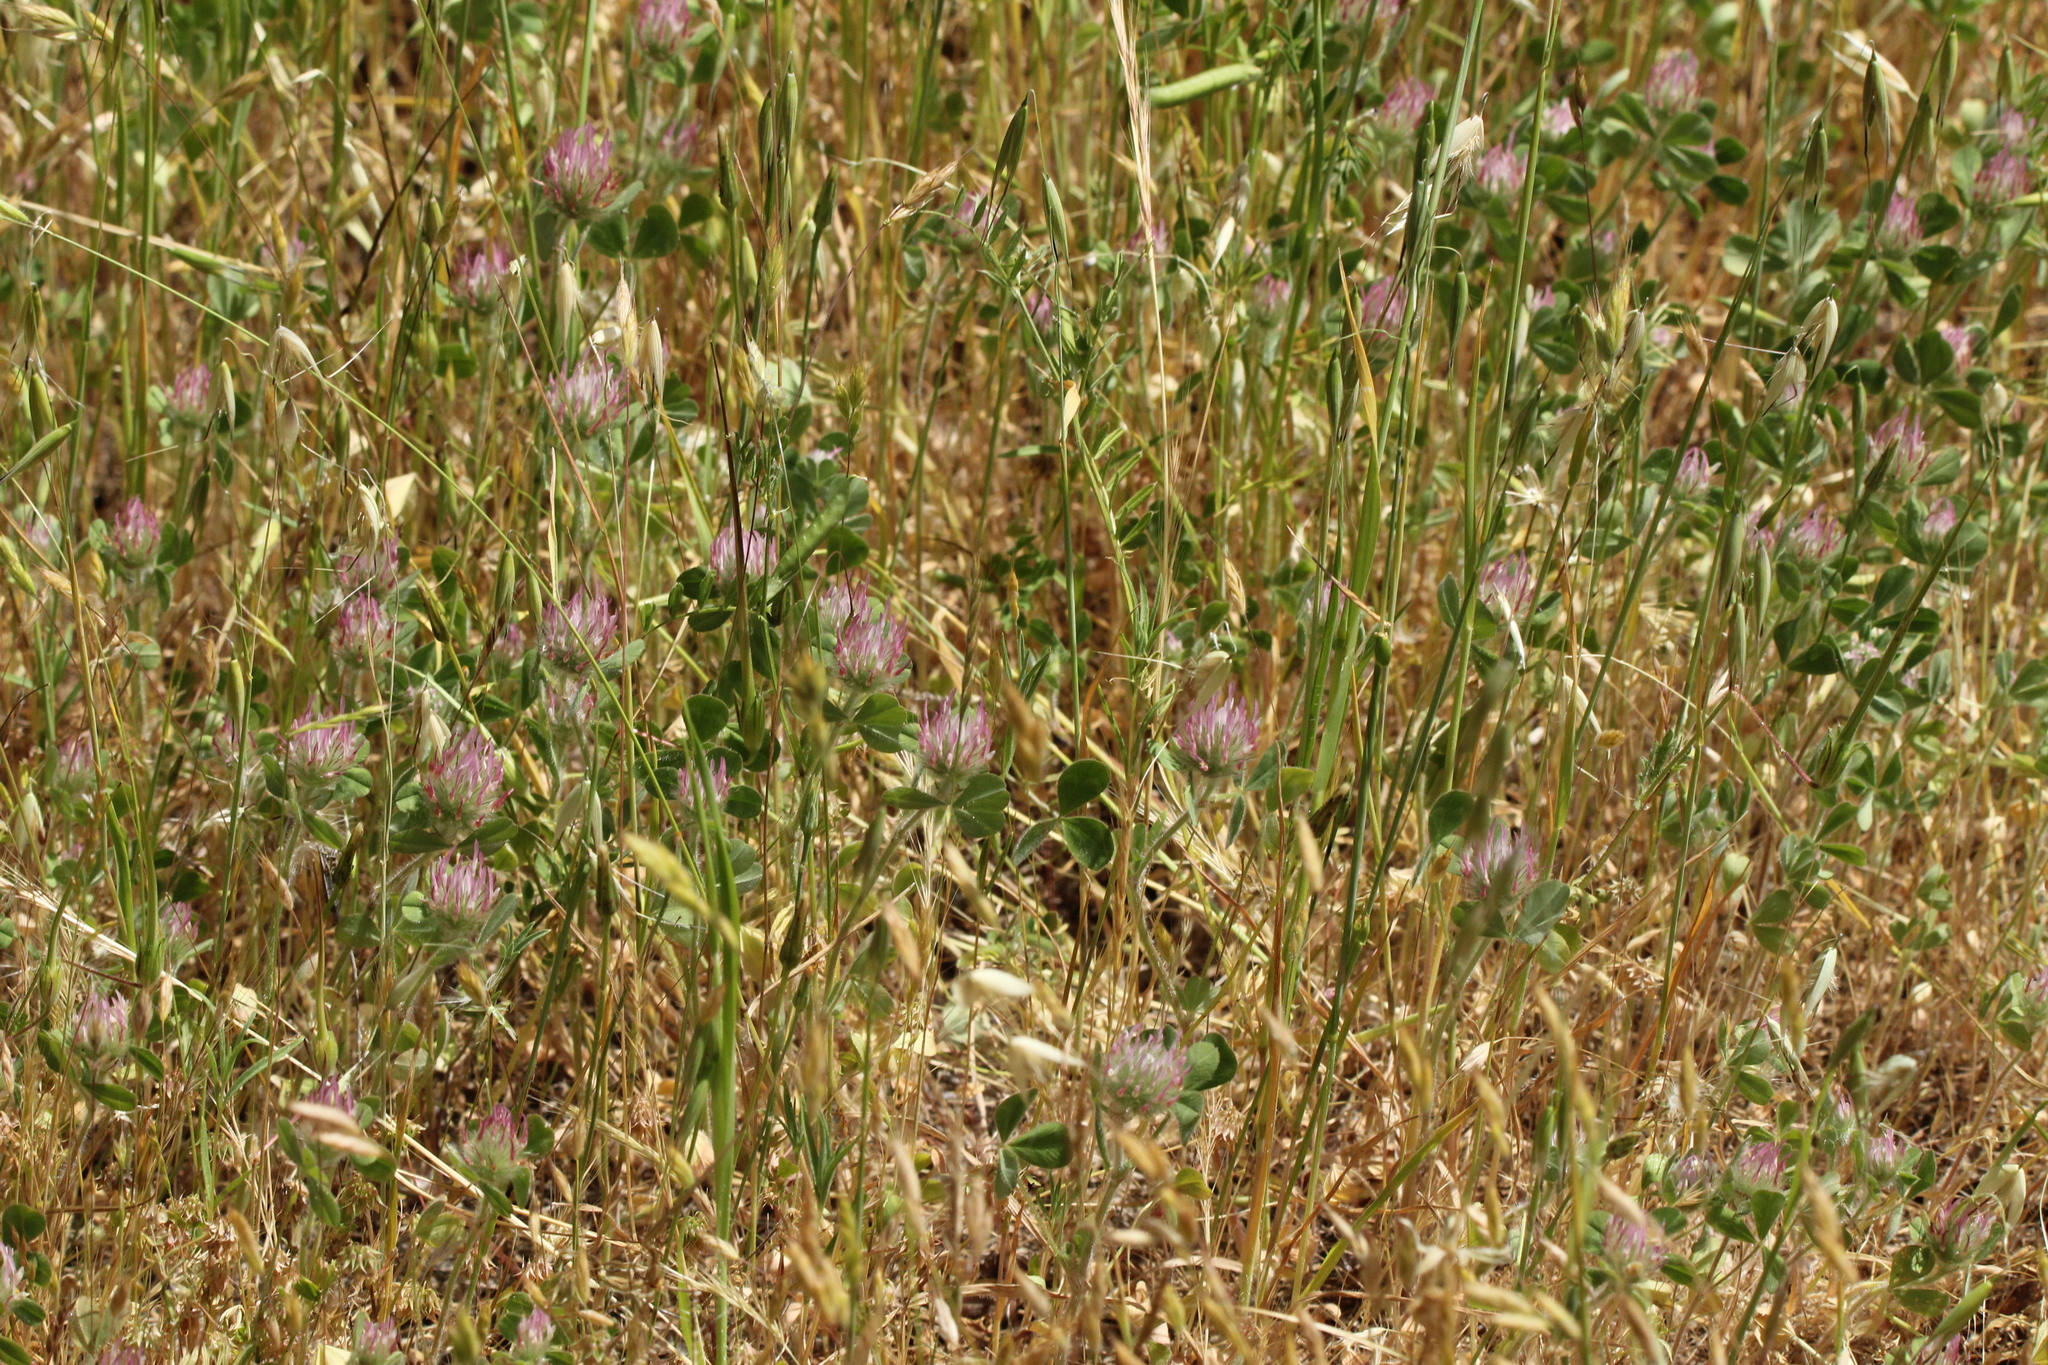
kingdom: Plantae
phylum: Tracheophyta
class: Magnoliopsida
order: Fabales
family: Fabaceae
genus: Trifolium
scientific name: Trifolium hirtum
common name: Rose clover
